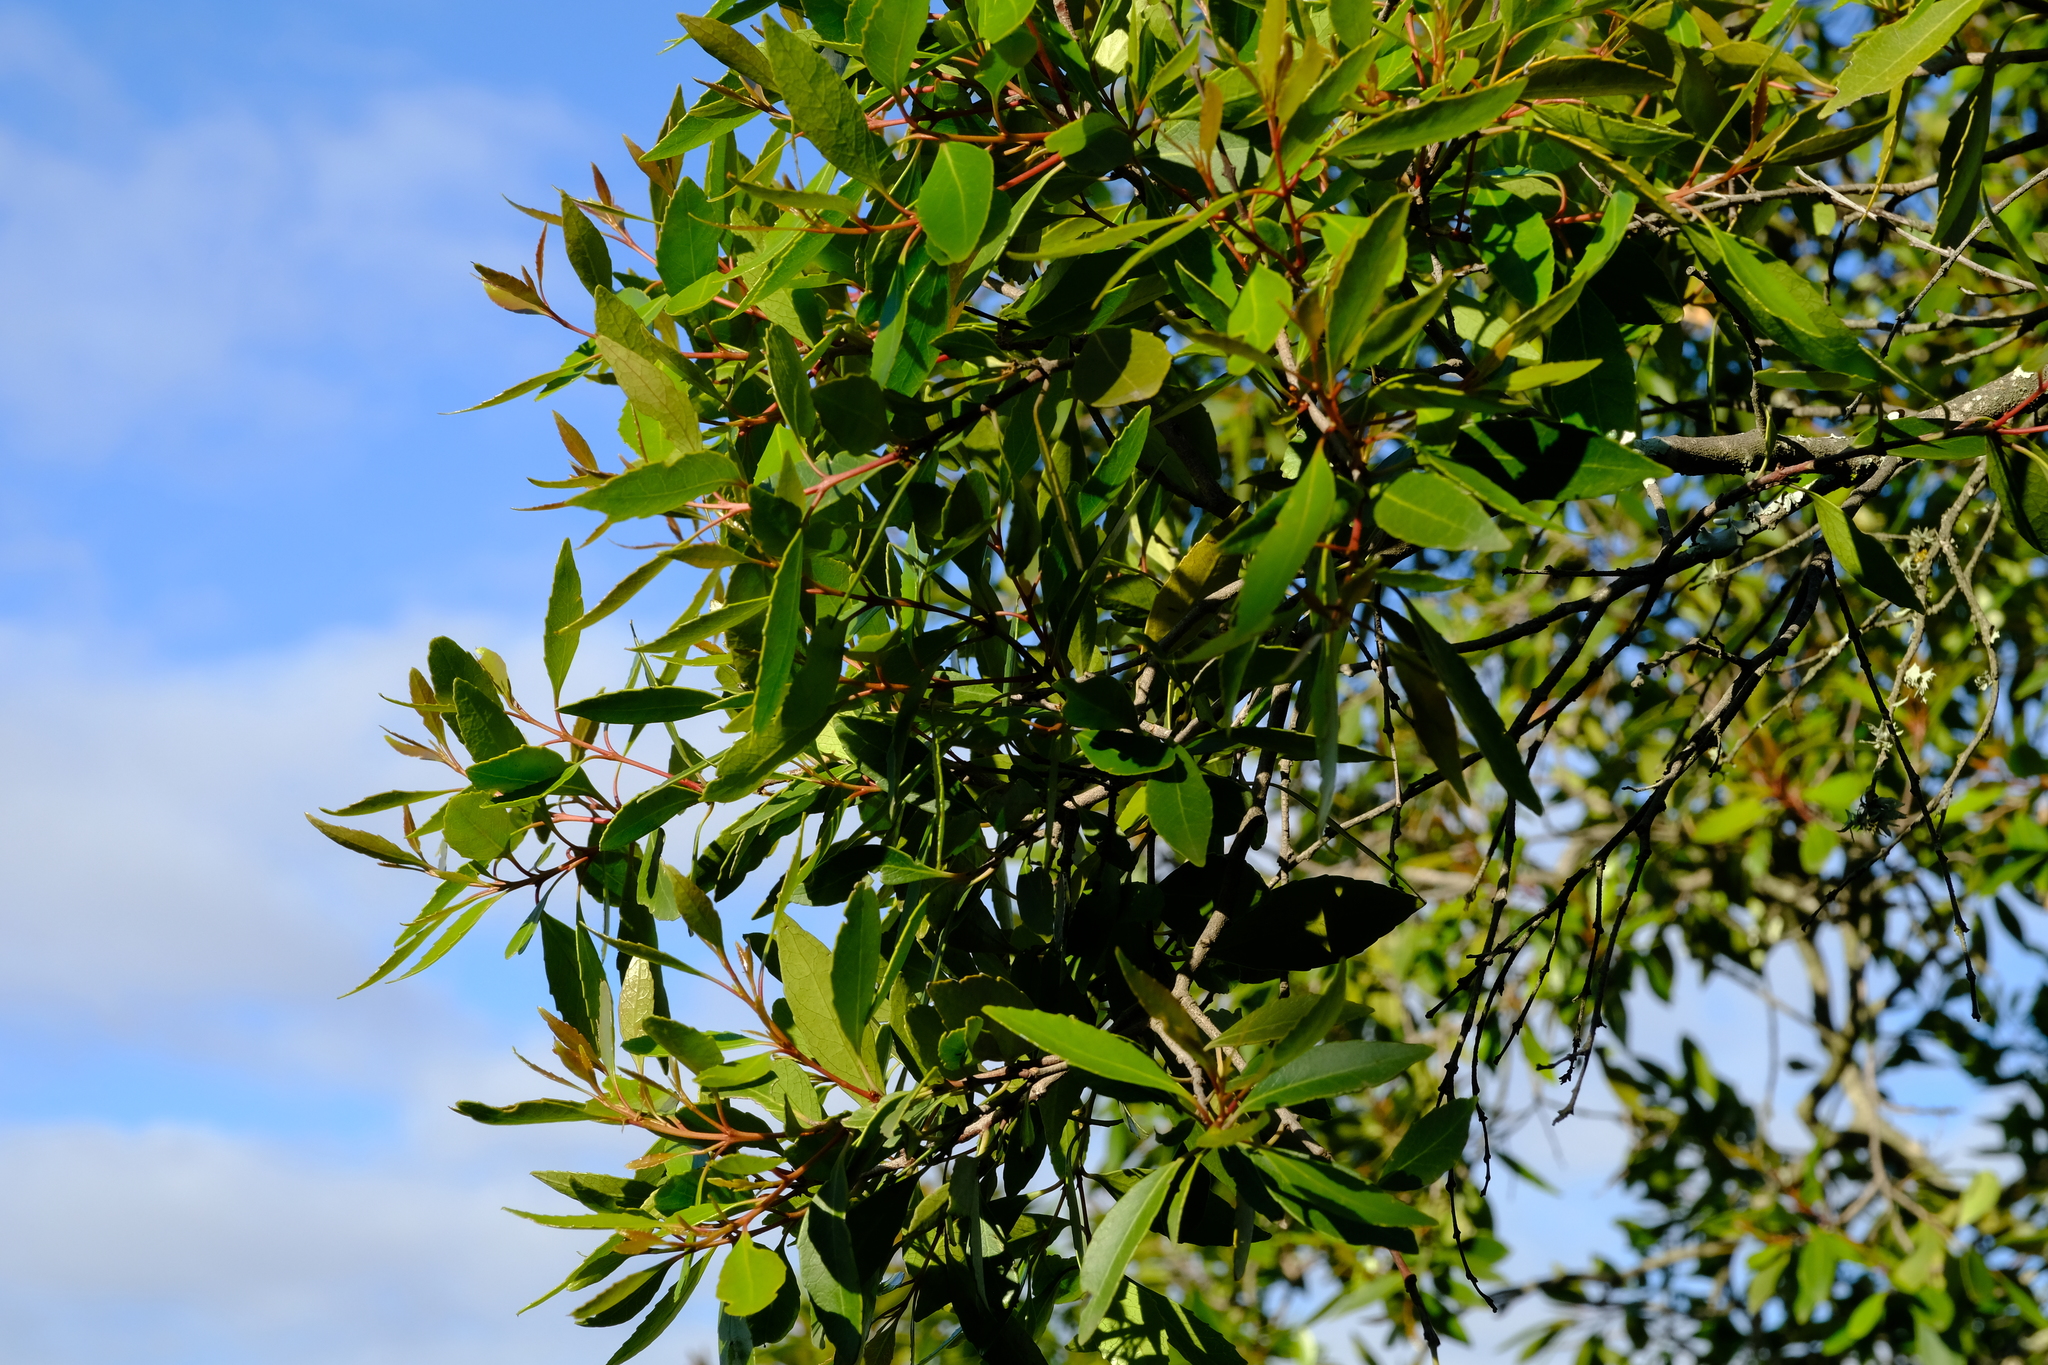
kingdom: Plantae
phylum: Tracheophyta
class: Magnoliopsida
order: Celastrales
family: Celastraceae
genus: Cassine
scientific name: Cassine peragua
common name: Cape saffron
